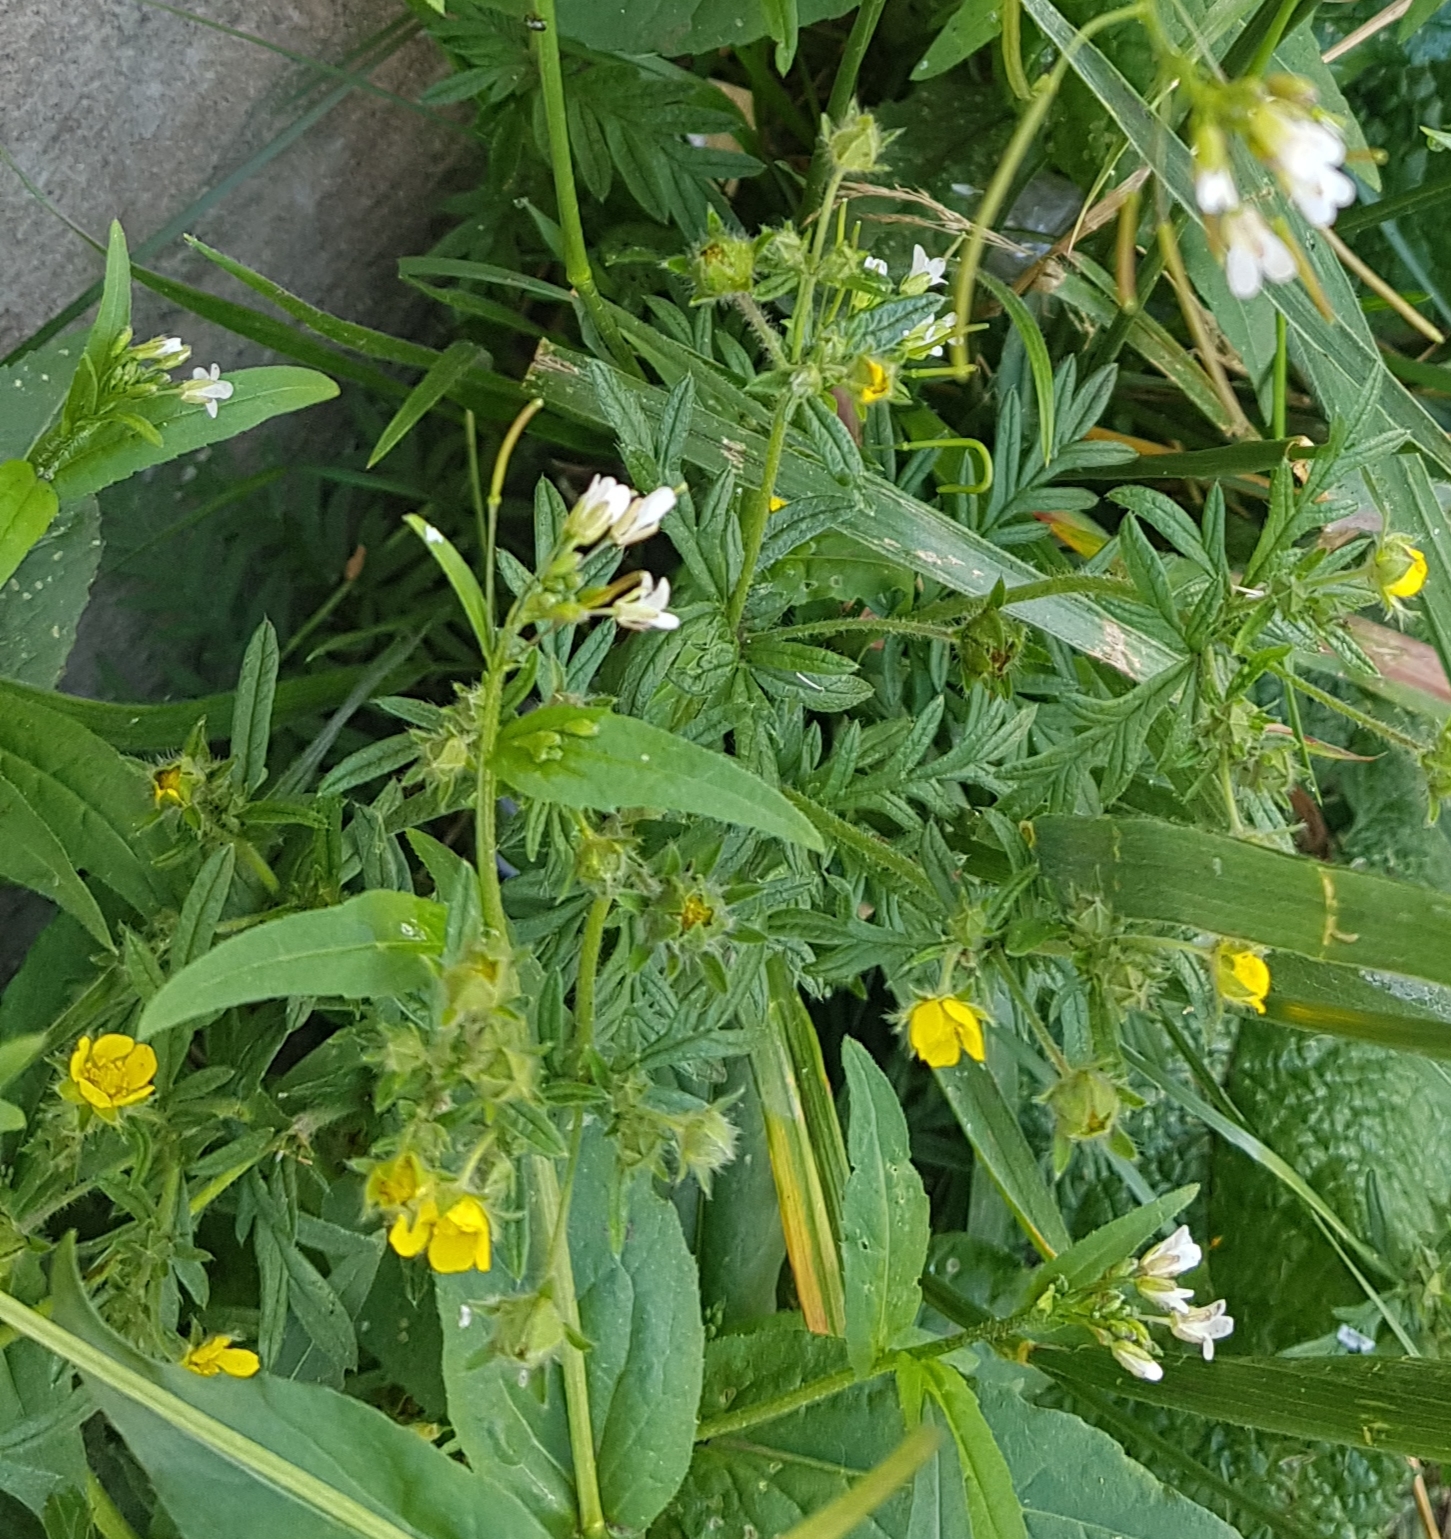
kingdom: Plantae
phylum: Tracheophyta
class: Magnoliopsida
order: Brassicales
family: Brassicaceae
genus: Catolobus
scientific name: Catolobus pendulus
